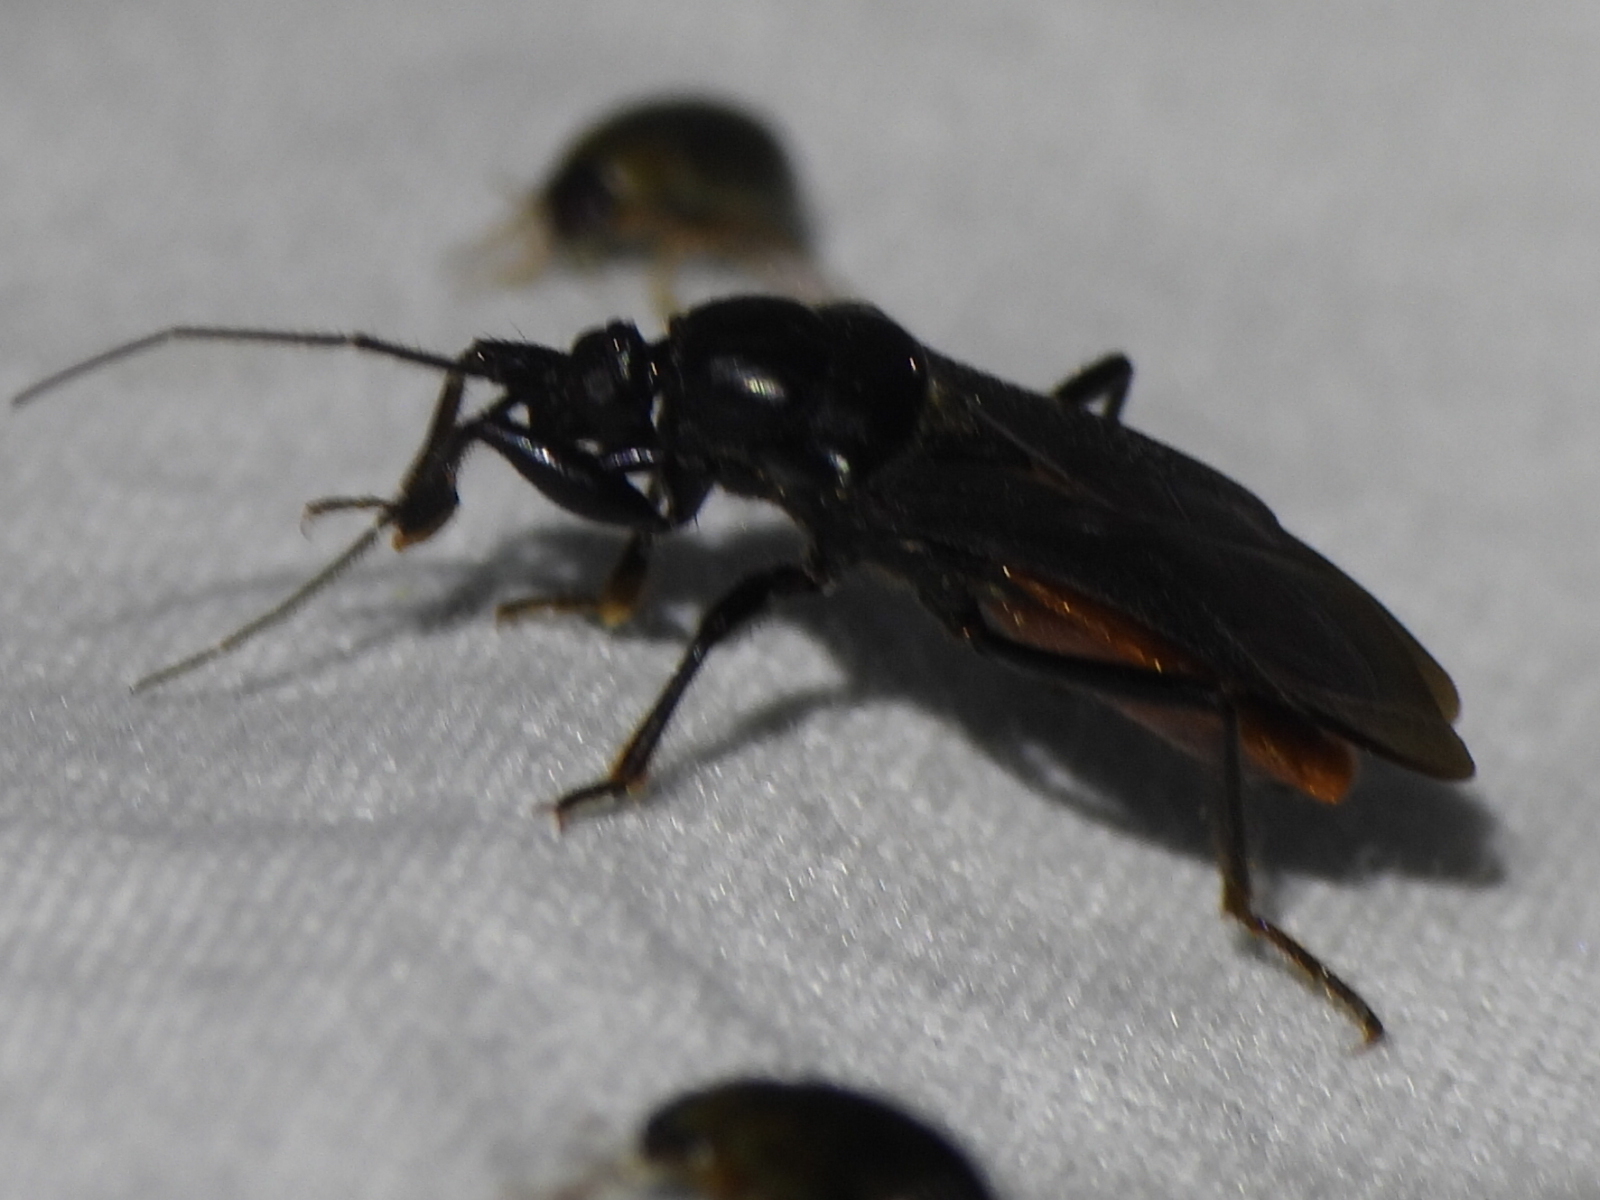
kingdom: Animalia
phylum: Arthropoda
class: Insecta
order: Hemiptera
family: Reduviidae
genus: Melanolestes
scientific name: Melanolestes picipes
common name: Assassin bug
